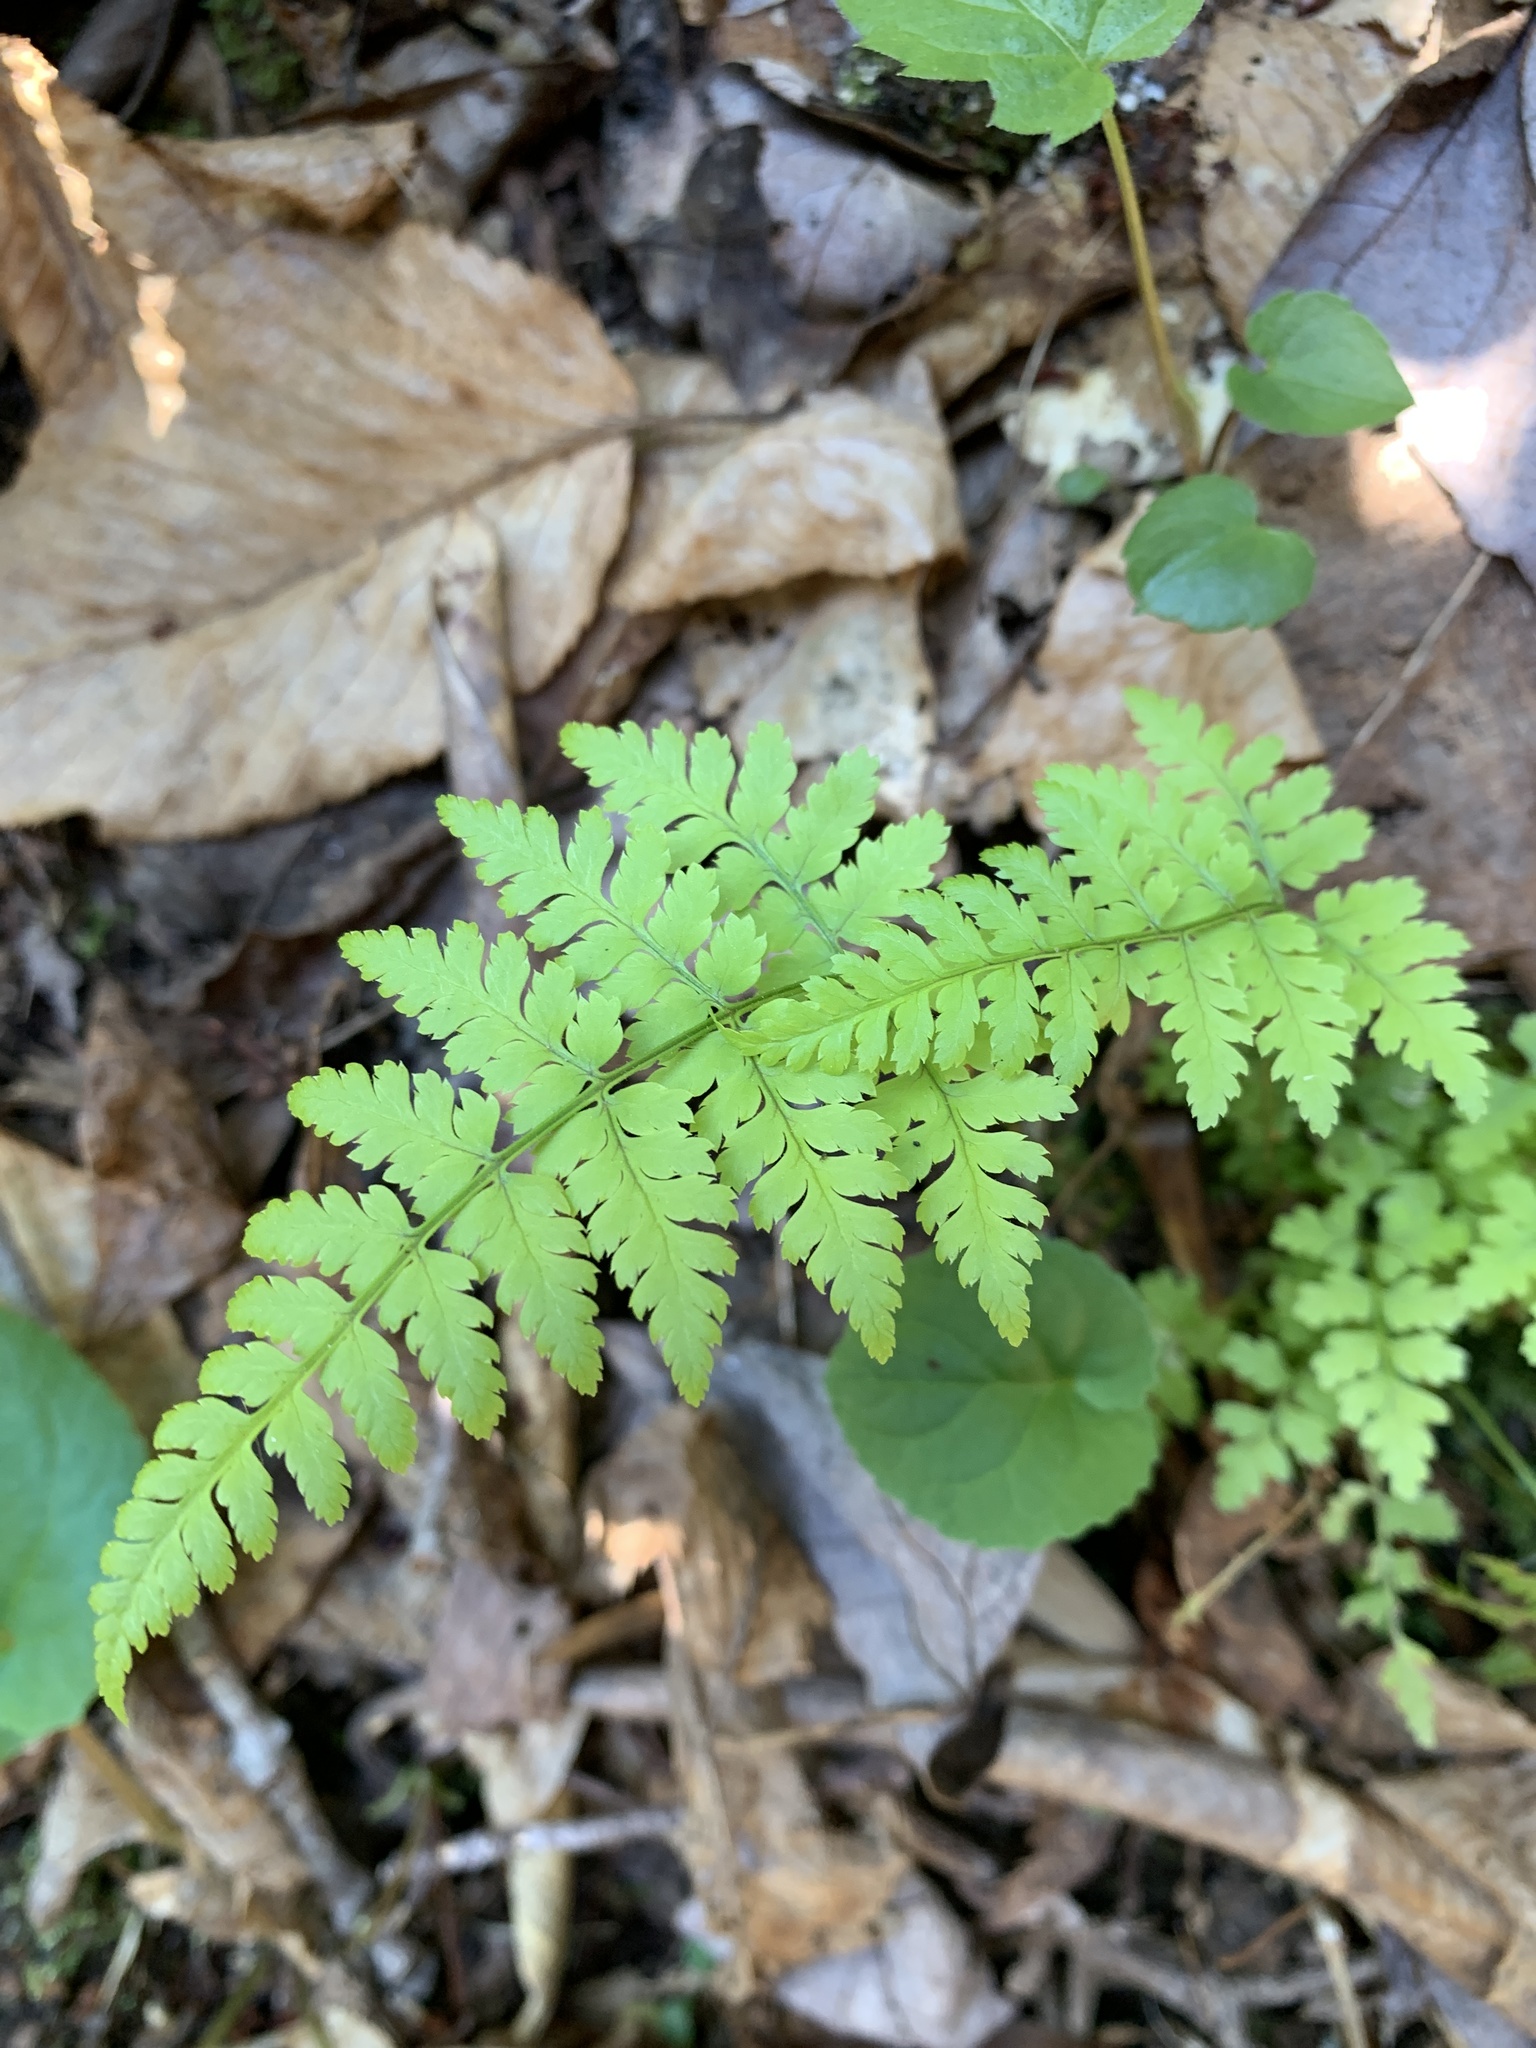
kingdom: Plantae
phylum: Tracheophyta
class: Polypodiopsida
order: Polypodiales
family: Dennstaedtiaceae
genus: Sitobolium
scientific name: Sitobolium punctilobum
